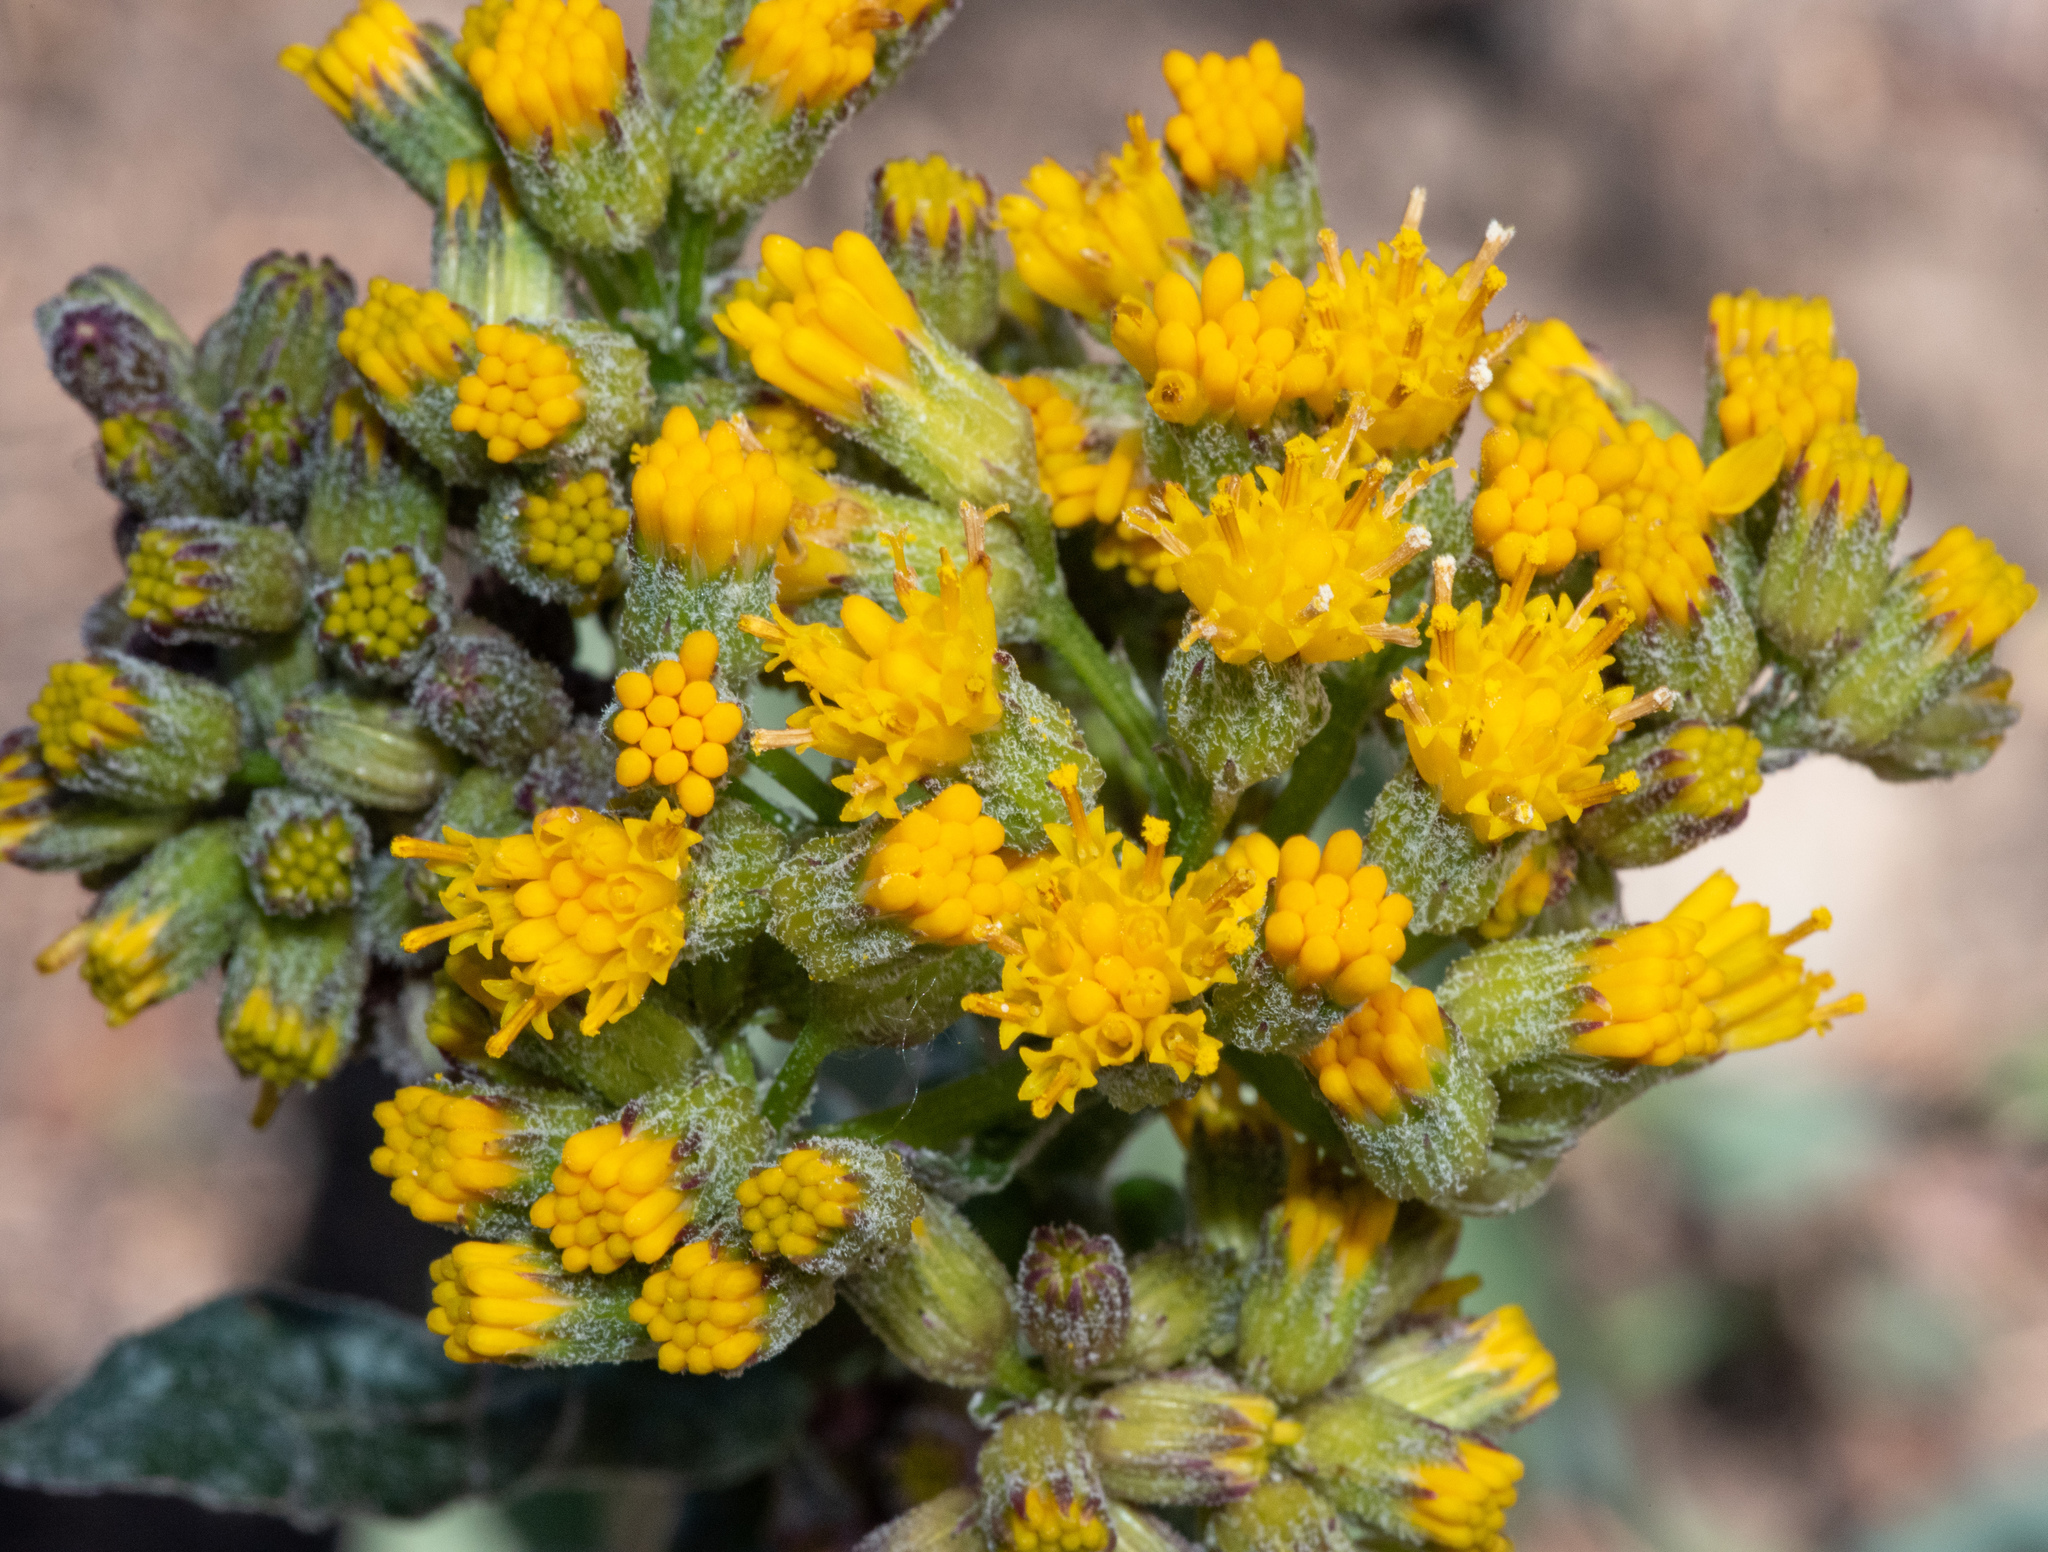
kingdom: Plantae
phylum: Tracheophyta
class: Magnoliopsida
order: Asterales
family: Asteraceae
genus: Senecio
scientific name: Senecio aronicoides
